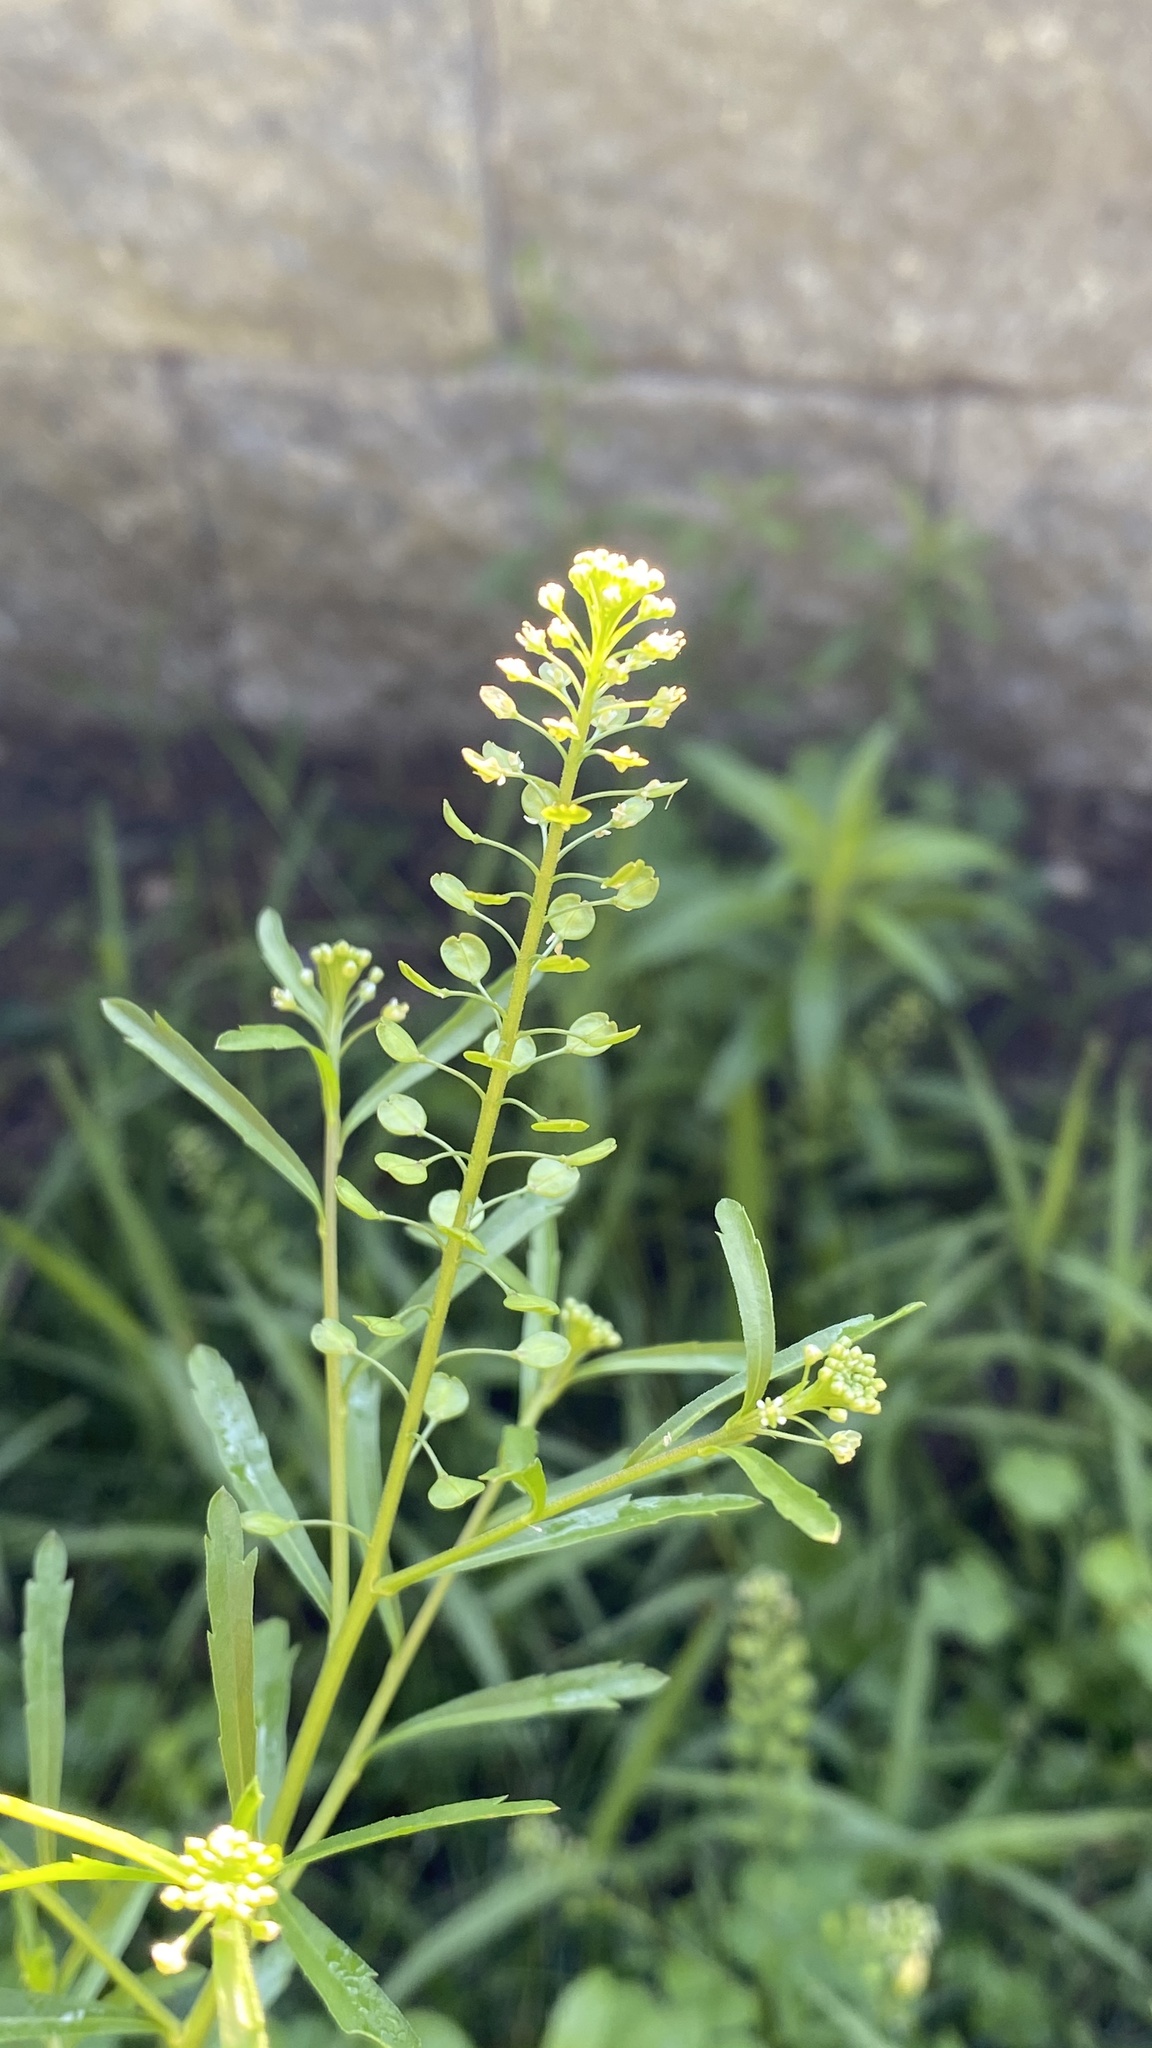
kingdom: Plantae
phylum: Tracheophyta
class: Magnoliopsida
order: Brassicales
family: Brassicaceae
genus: Lepidium
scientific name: Lepidium virginicum
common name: Least pepperwort
